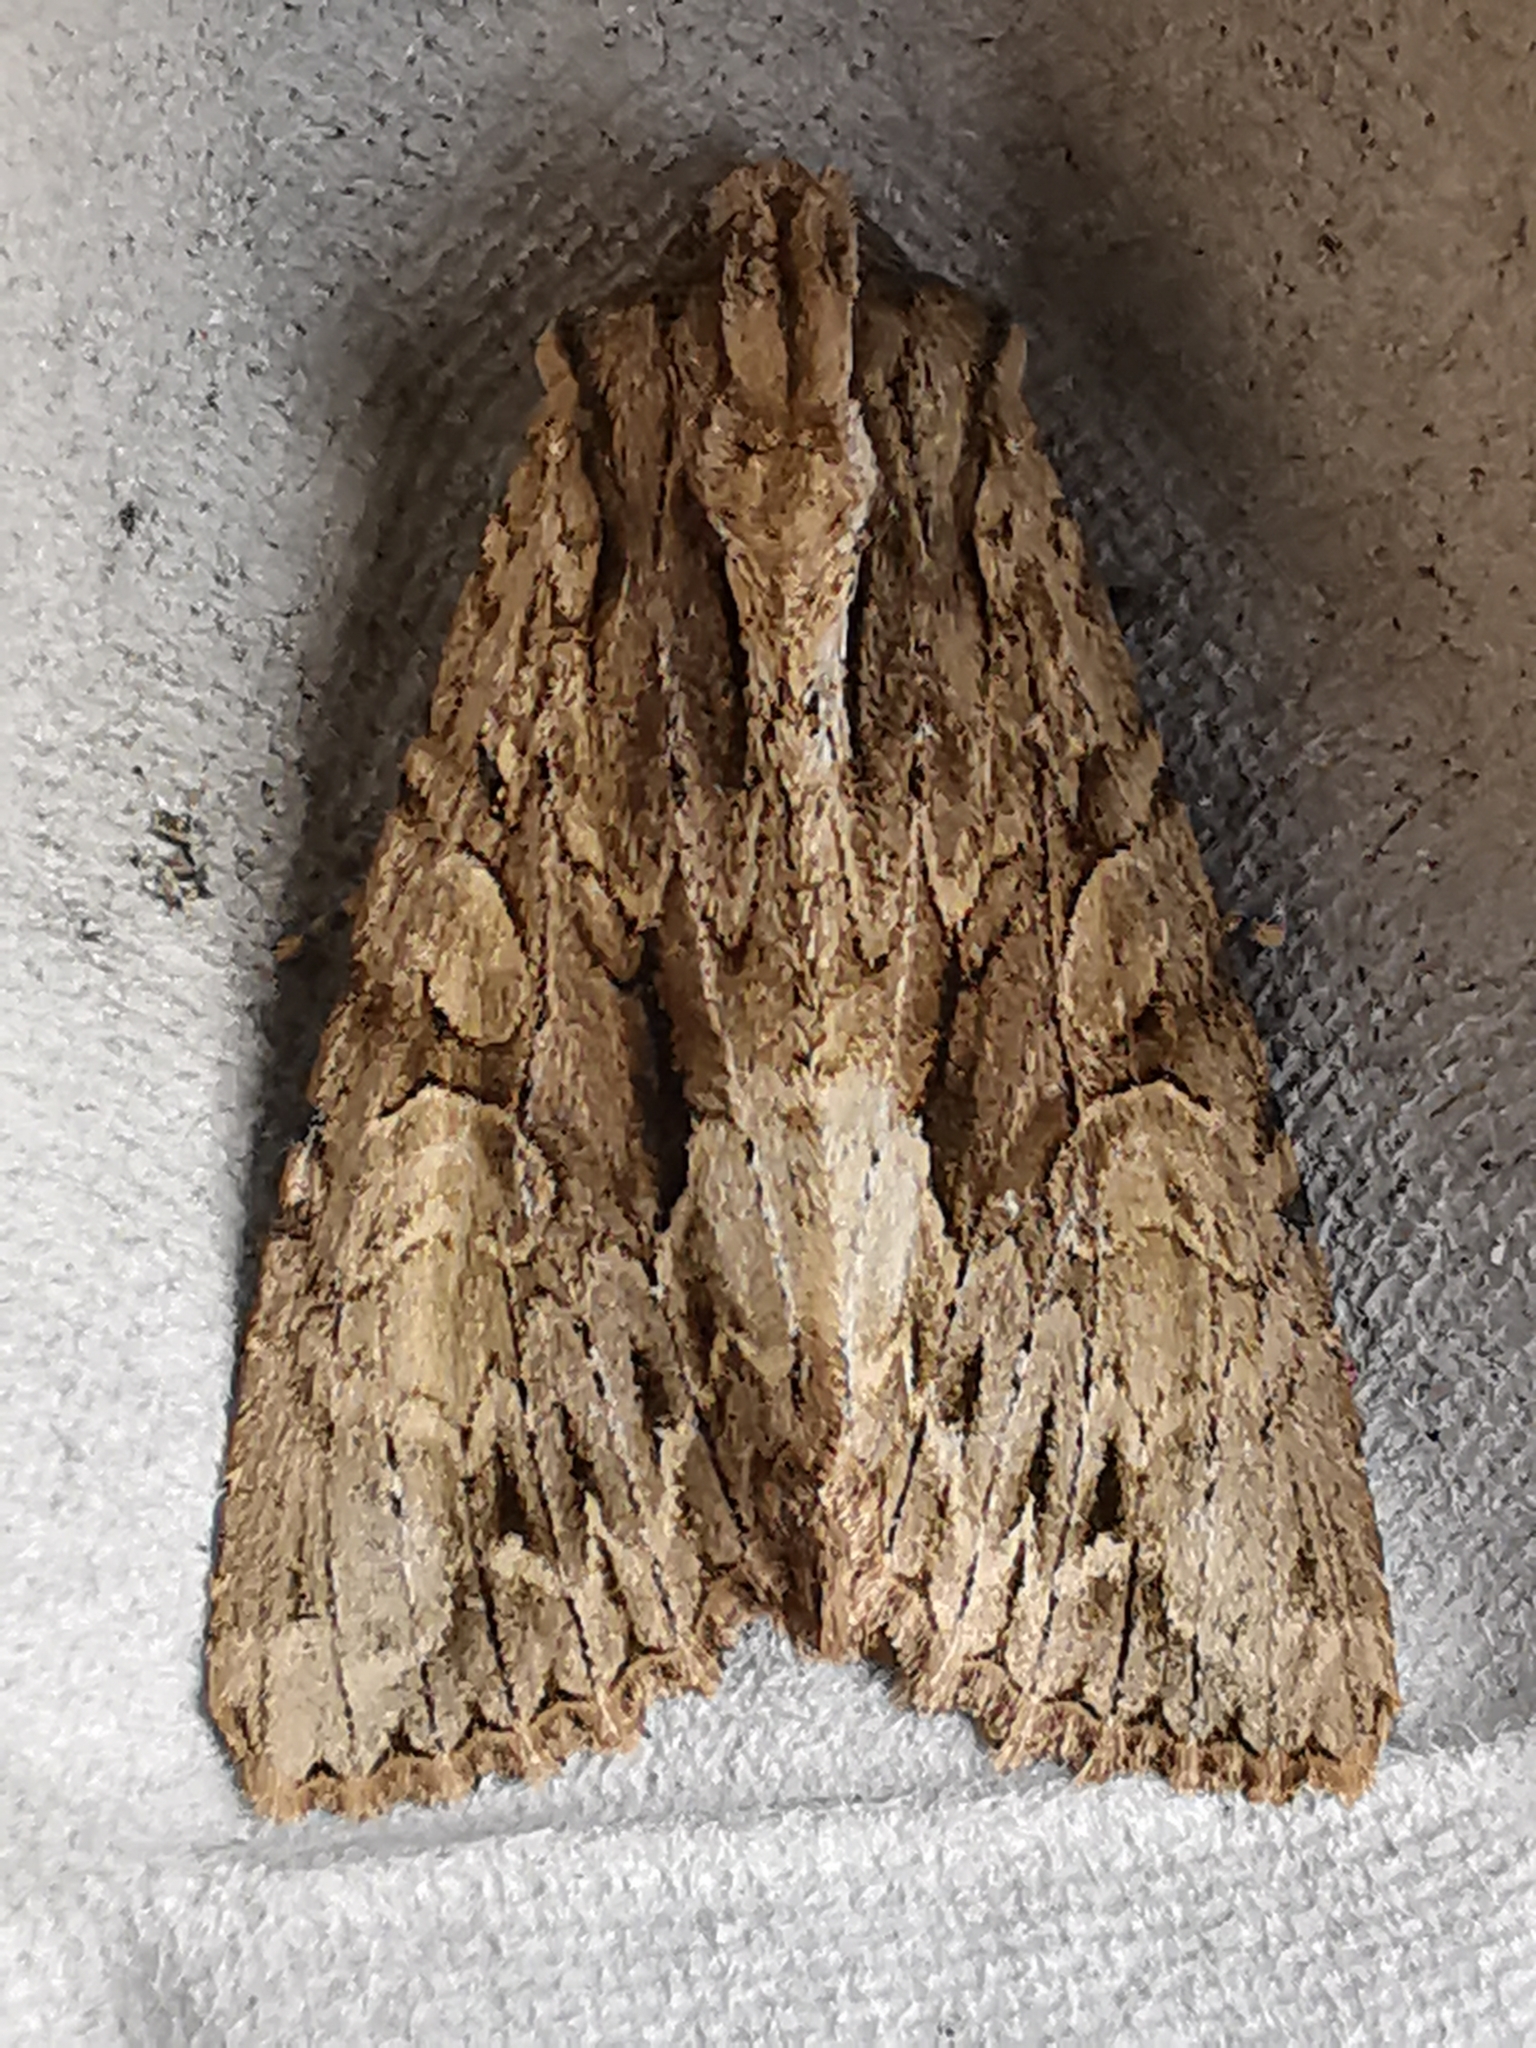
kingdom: Animalia
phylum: Arthropoda
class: Insecta
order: Lepidoptera
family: Noctuidae
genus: Apamea
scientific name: Apamea monoglypha
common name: Dark arches
